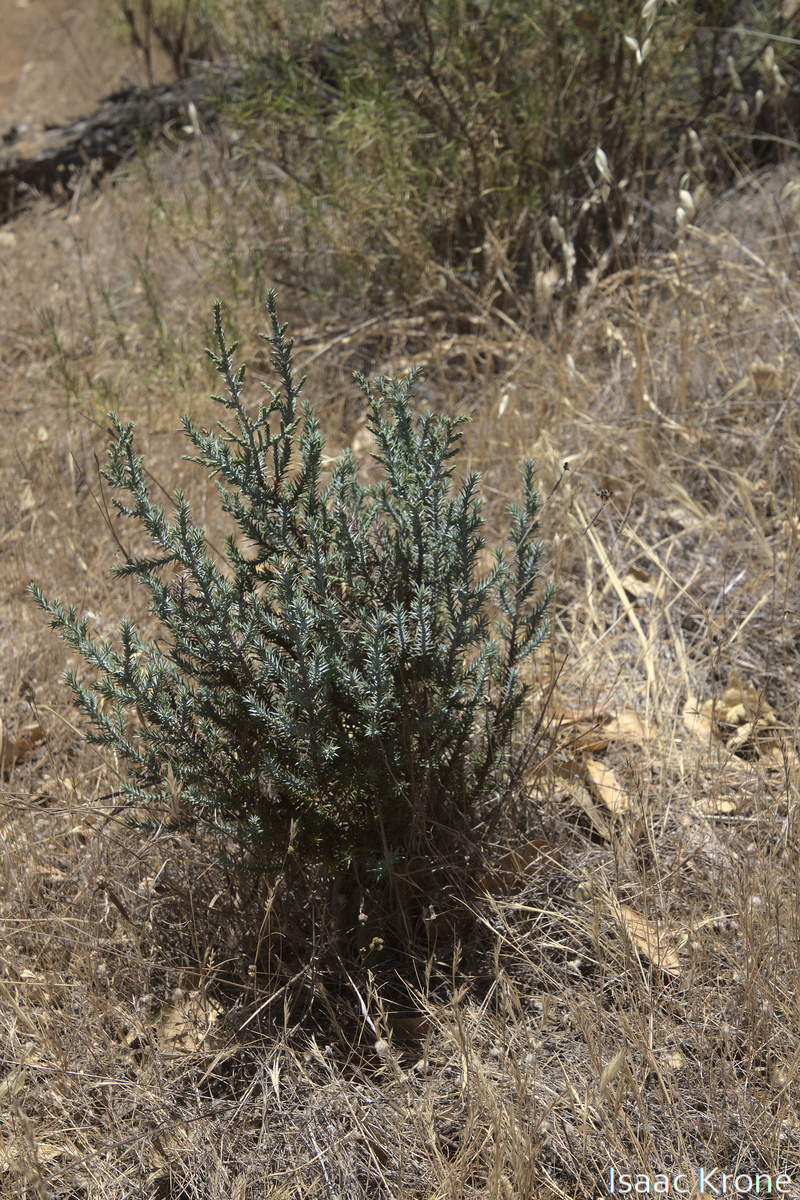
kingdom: Plantae
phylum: Tracheophyta
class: Pinopsida
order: Pinales
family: Cupressaceae
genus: Juniperus
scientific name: Juniperus californica
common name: California juniper
